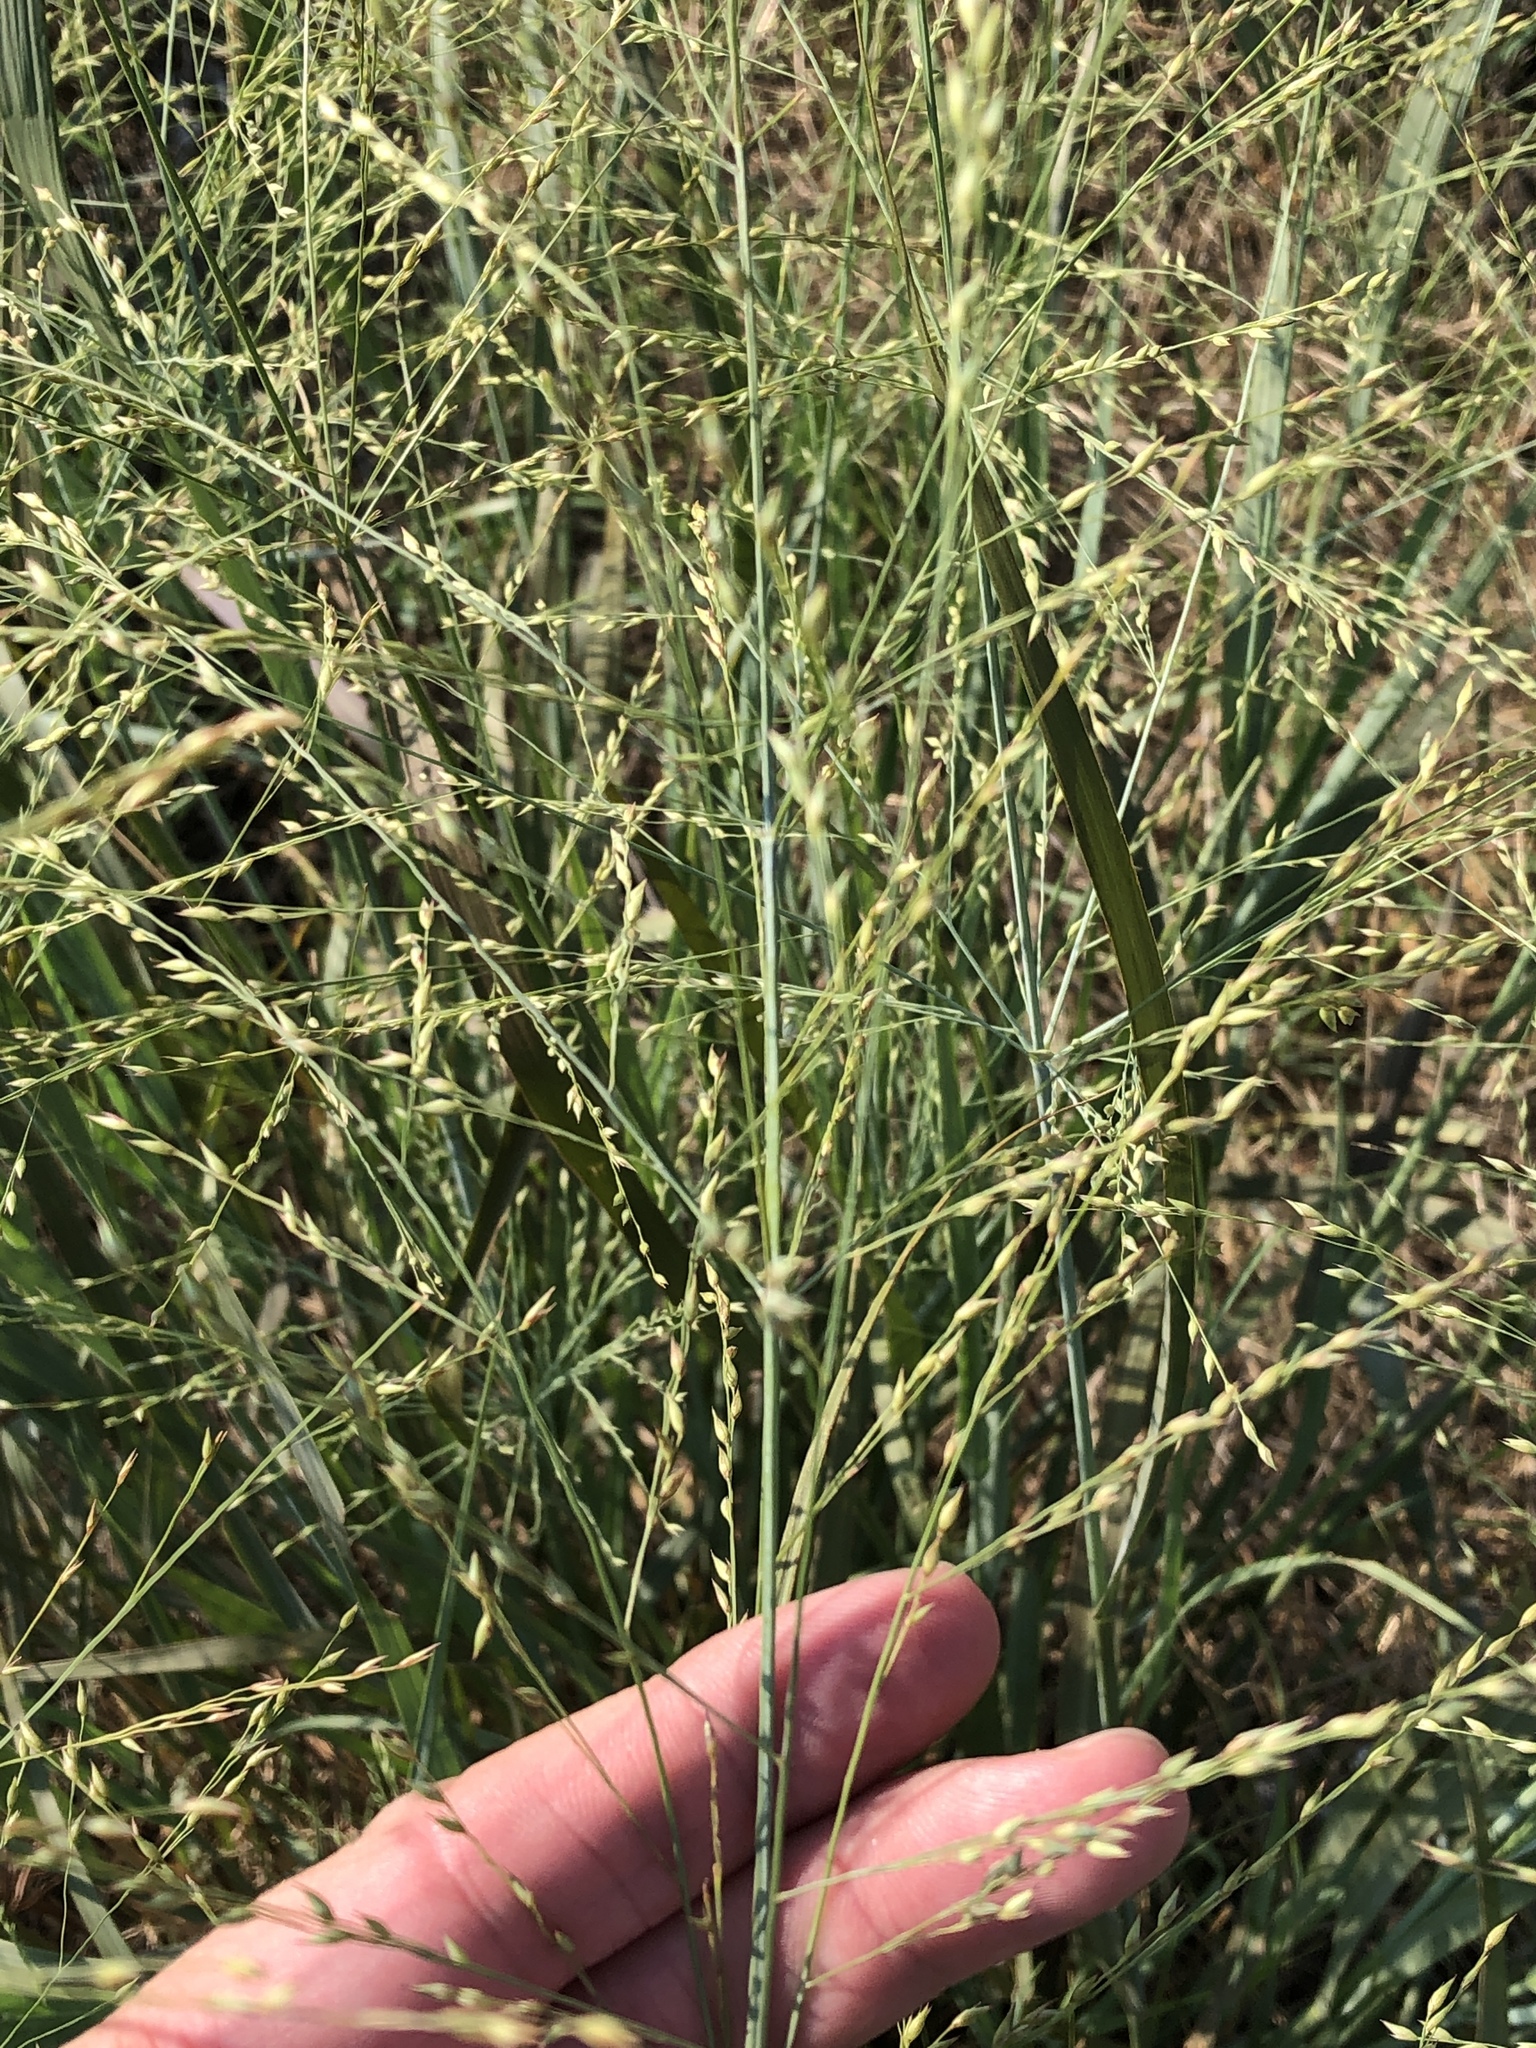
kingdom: Plantae
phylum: Tracheophyta
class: Liliopsida
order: Poales
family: Poaceae
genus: Panicum
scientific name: Panicum virgatum
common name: Switchgrass
